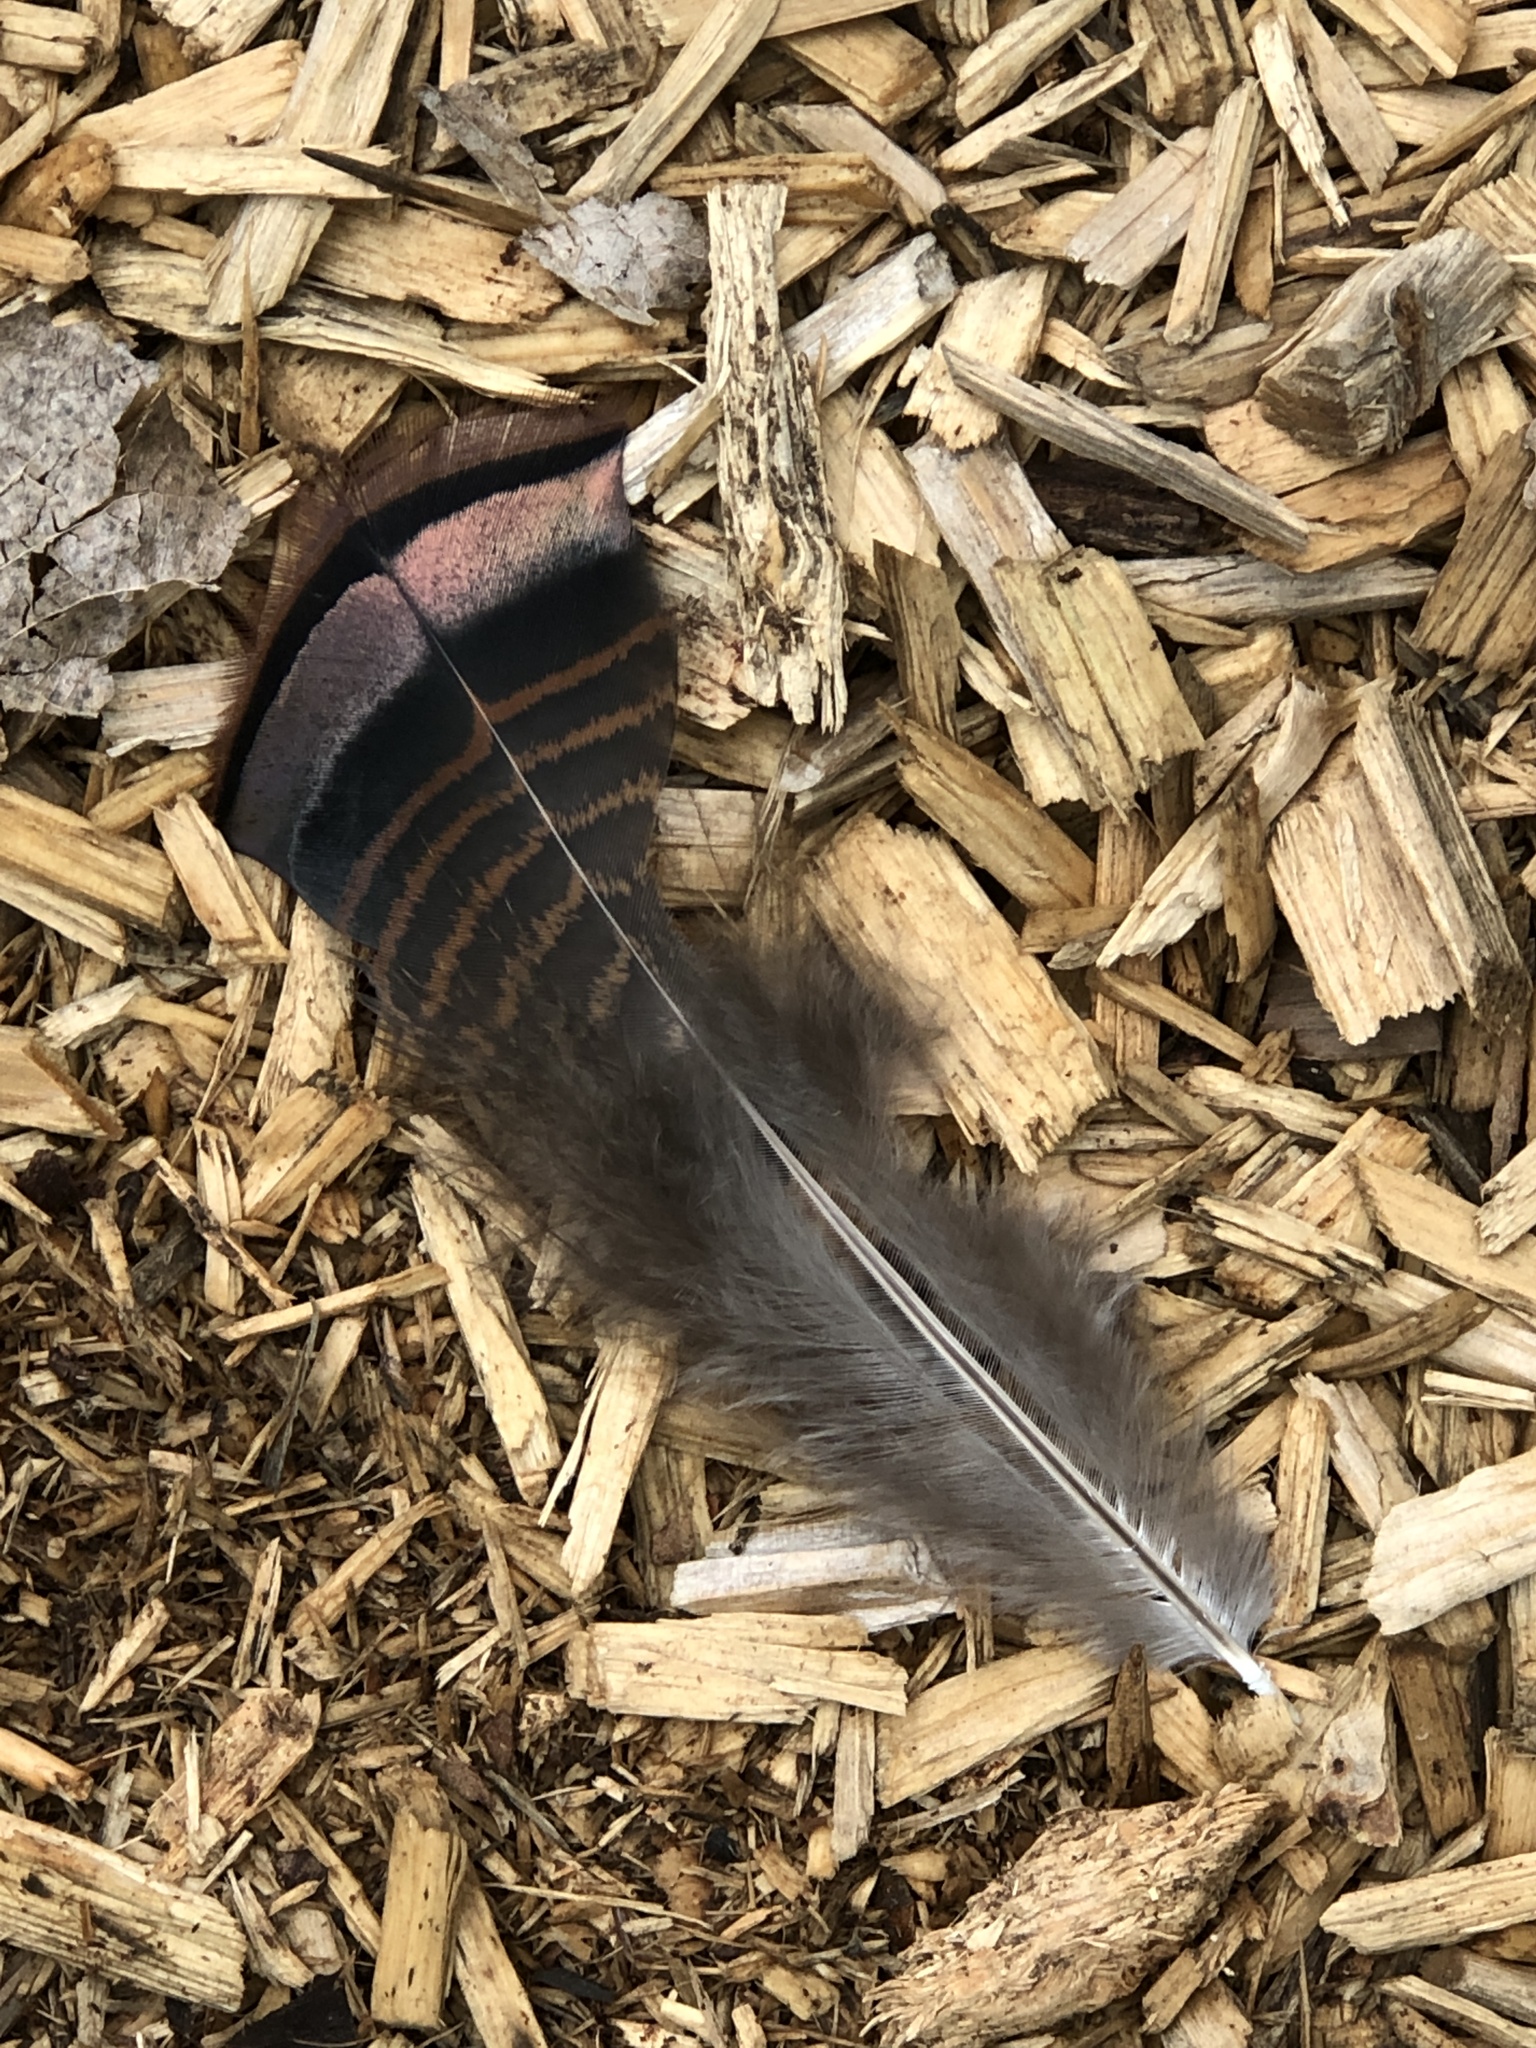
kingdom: Animalia
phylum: Chordata
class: Aves
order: Galliformes
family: Phasianidae
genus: Meleagris
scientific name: Meleagris gallopavo
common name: Wild turkey
